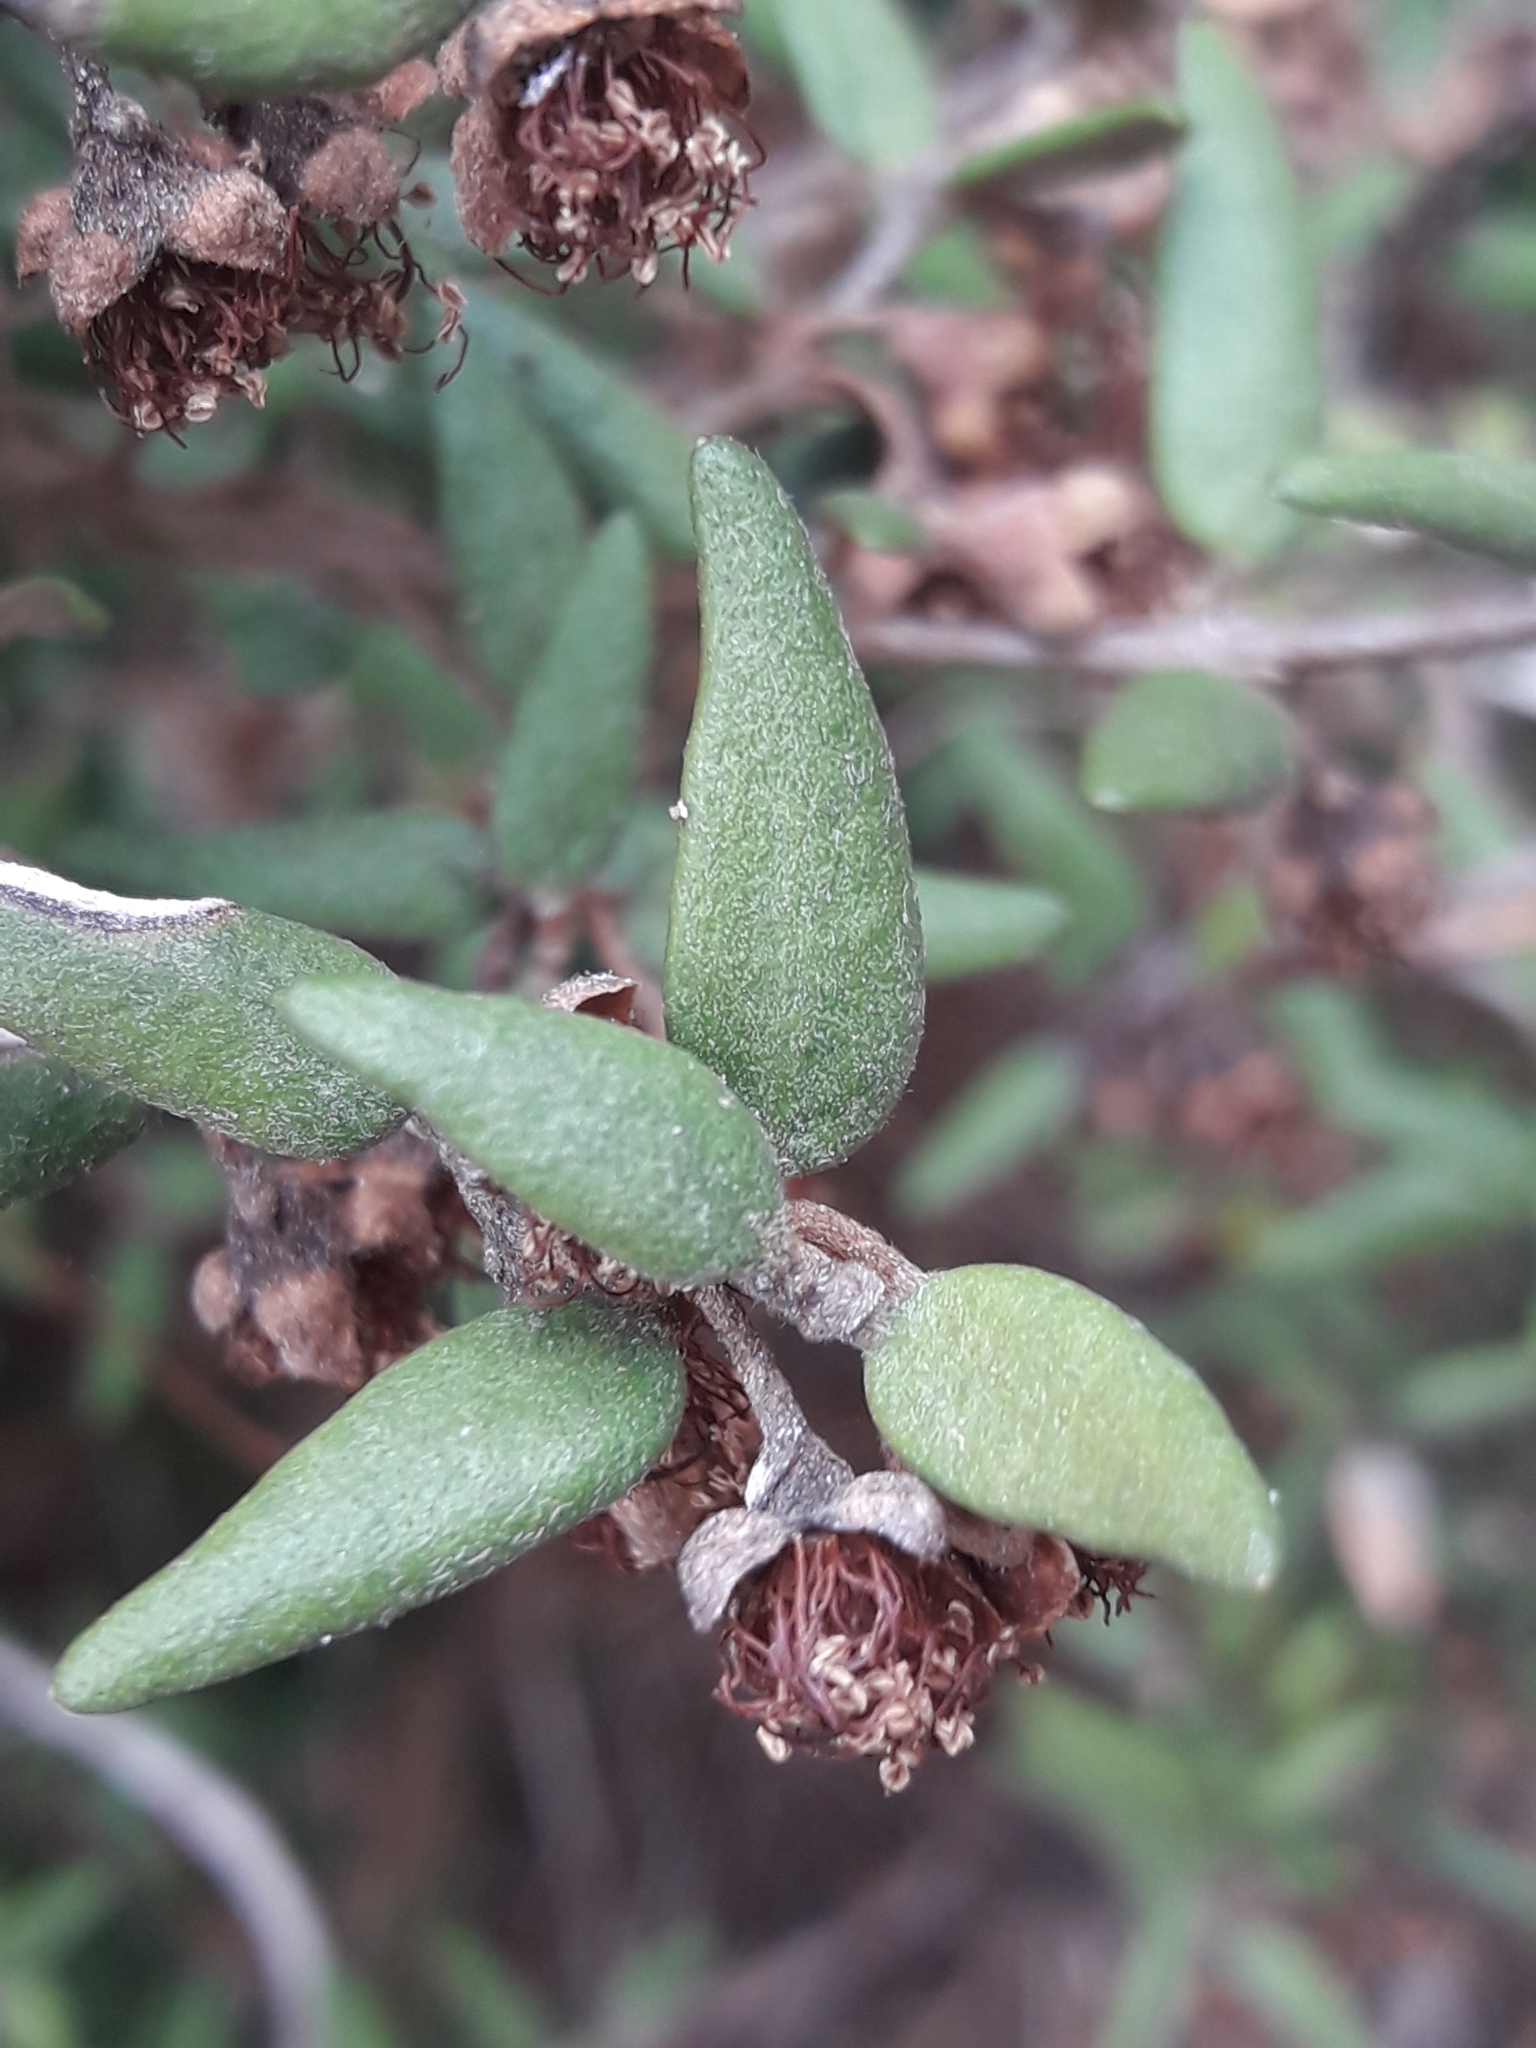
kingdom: Plantae
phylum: Tracheophyta
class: Magnoliopsida
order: Myrtales
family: Myrtaceae
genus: Myrceugenia
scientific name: Myrceugenia rufa
